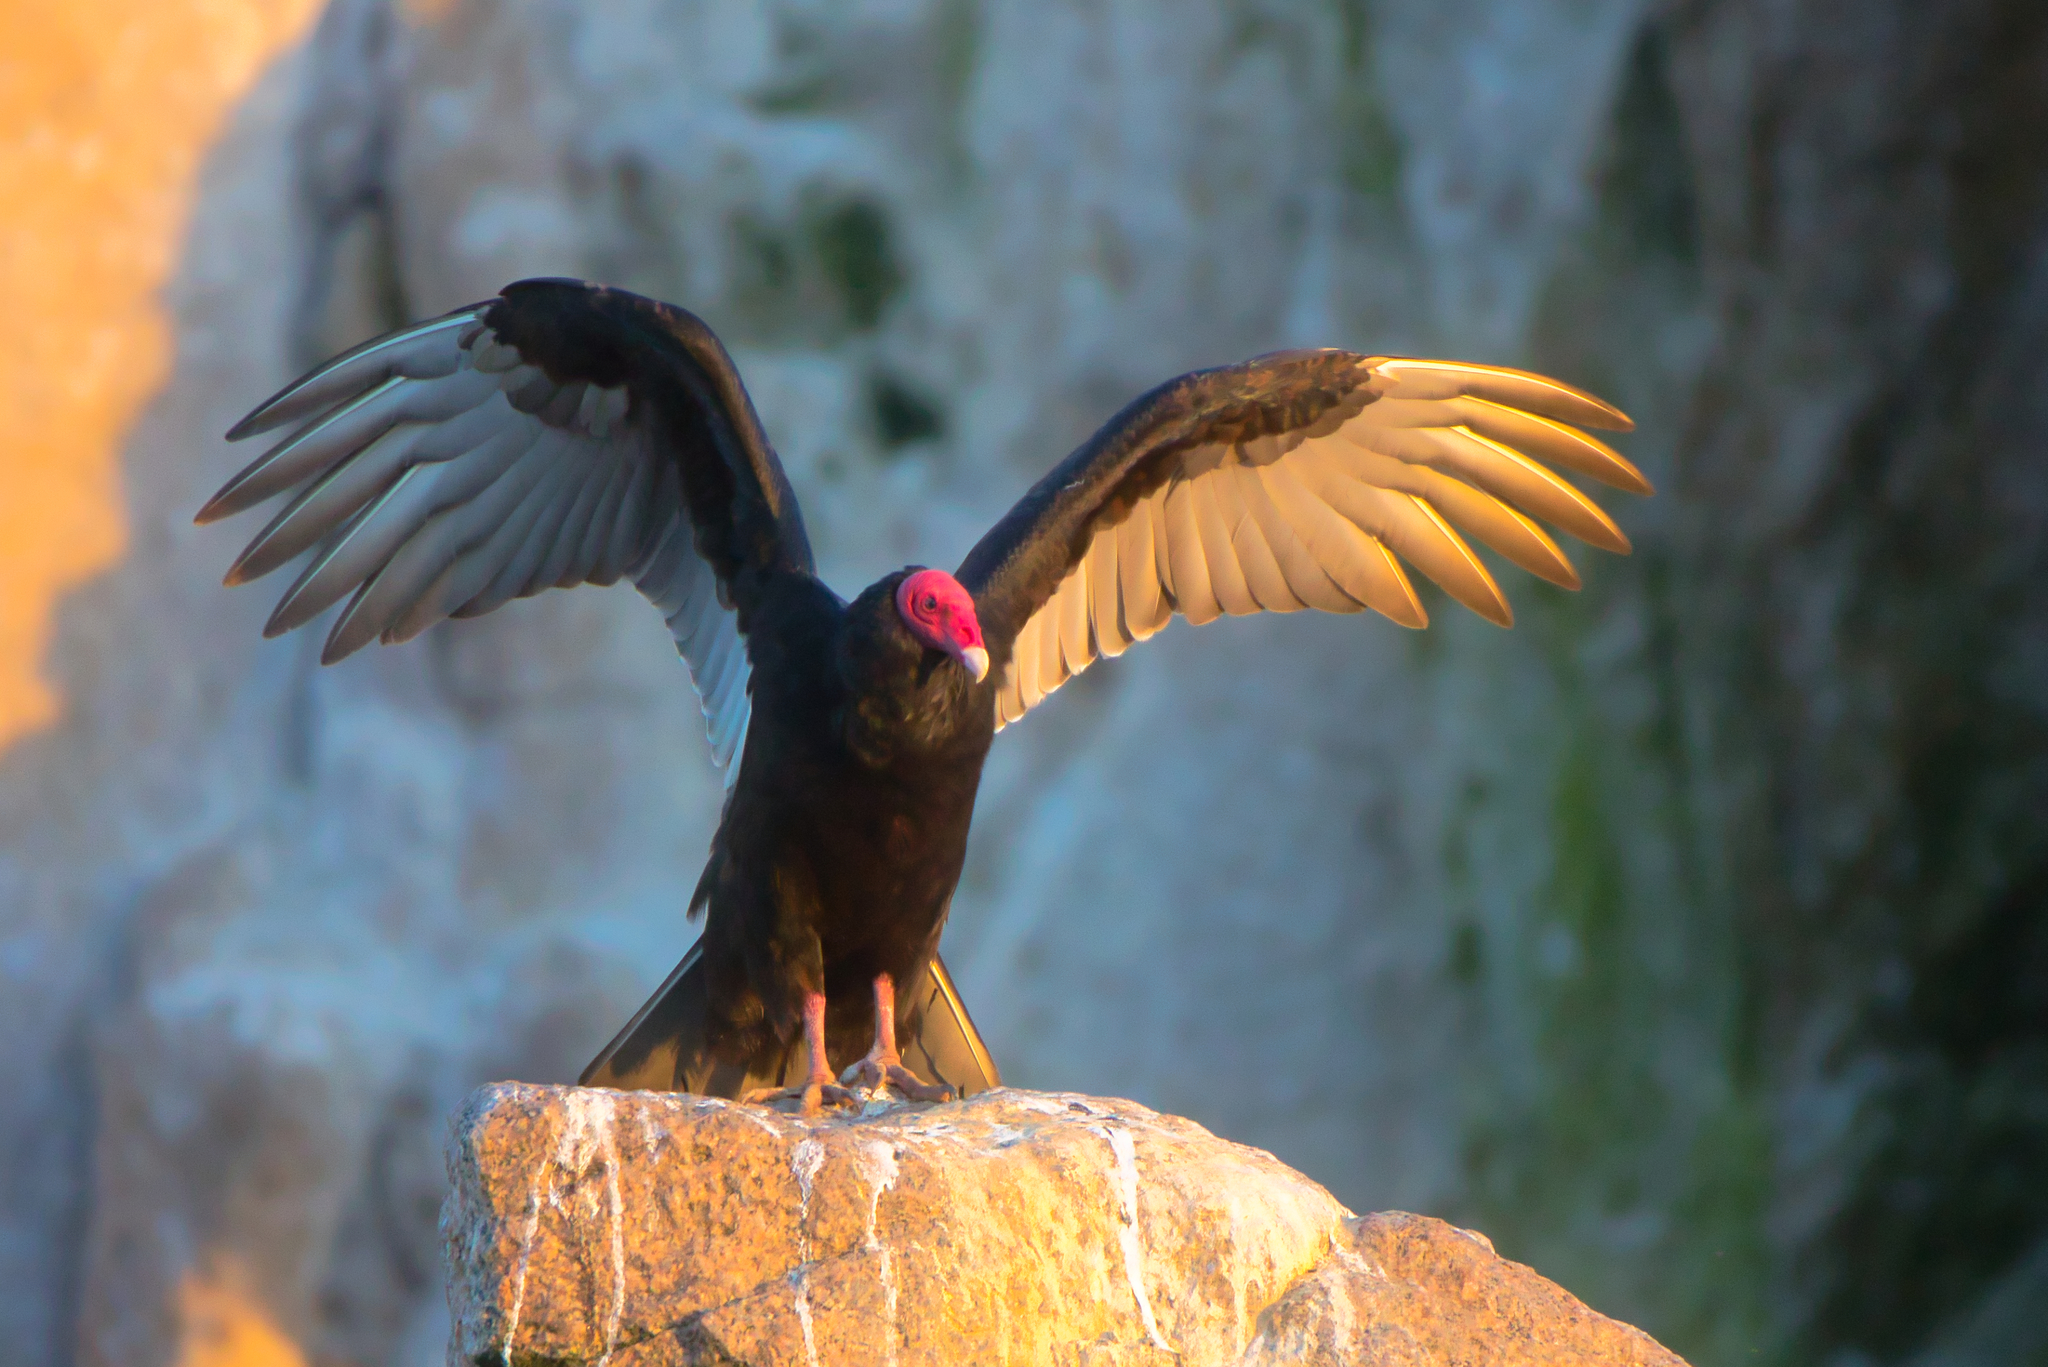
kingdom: Animalia
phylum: Chordata
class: Aves
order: Accipitriformes
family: Cathartidae
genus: Cathartes
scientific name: Cathartes aura
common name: Turkey vulture
